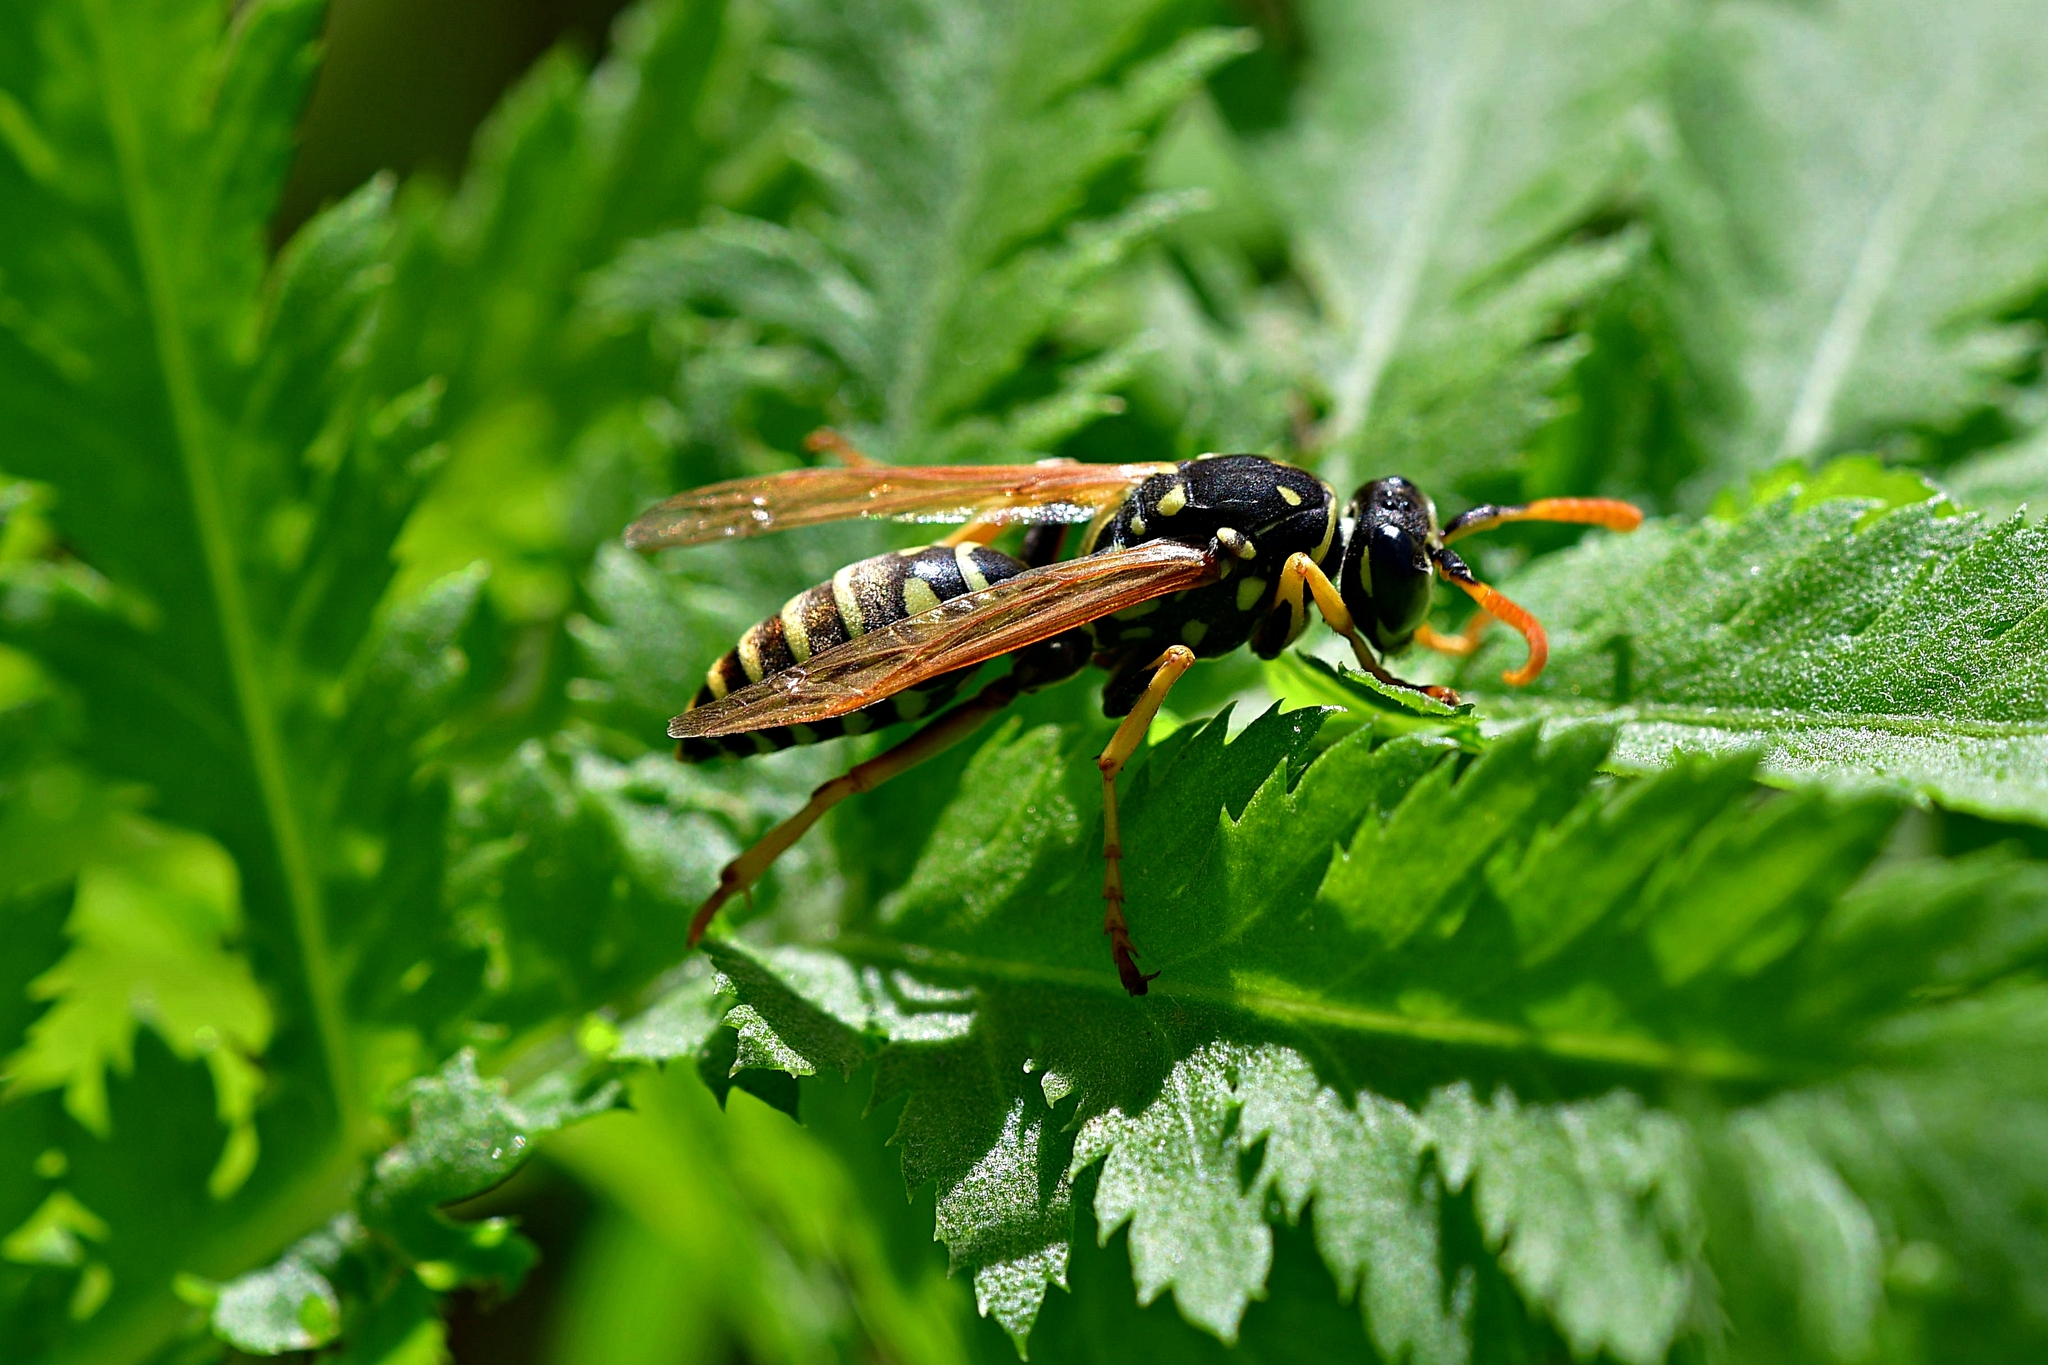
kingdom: Animalia
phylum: Arthropoda
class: Insecta
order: Hymenoptera
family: Eumenidae
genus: Polistes
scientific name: Polistes nimpha
